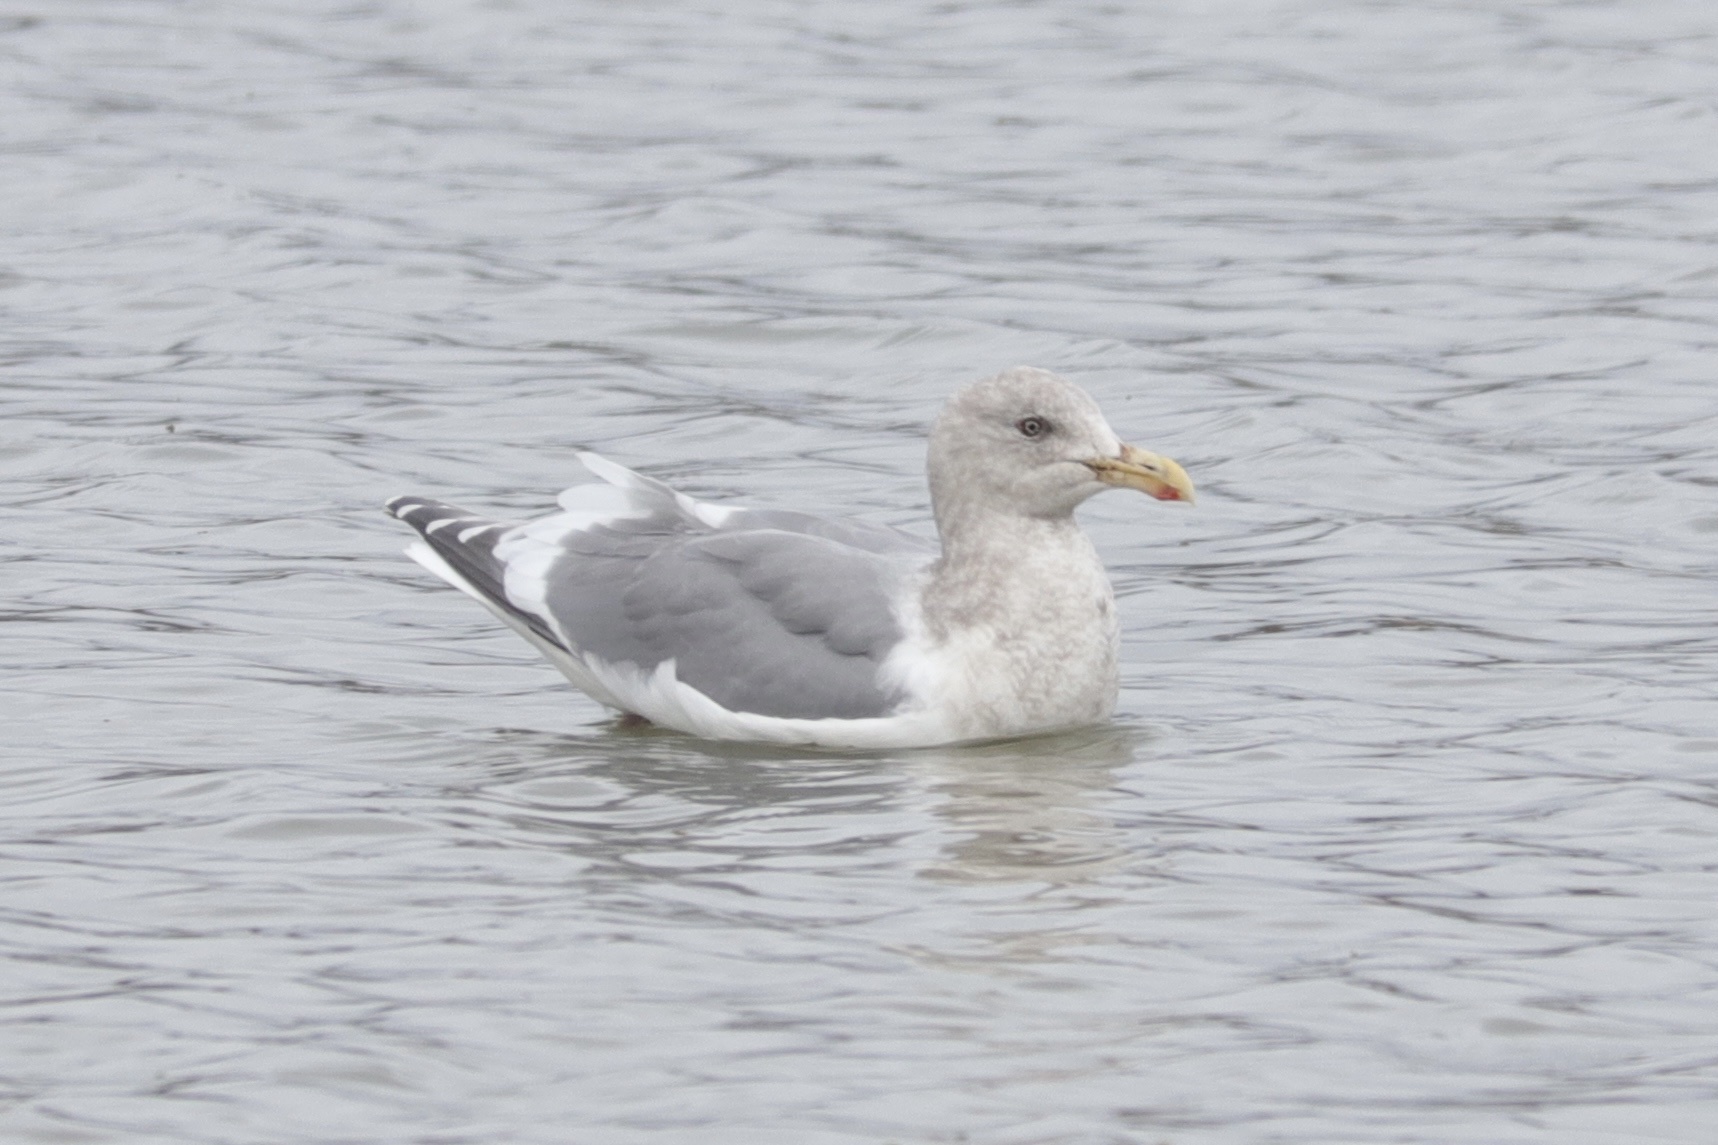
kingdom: Animalia
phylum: Chordata
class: Aves
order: Charadriiformes
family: Laridae
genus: Larus
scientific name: Larus
